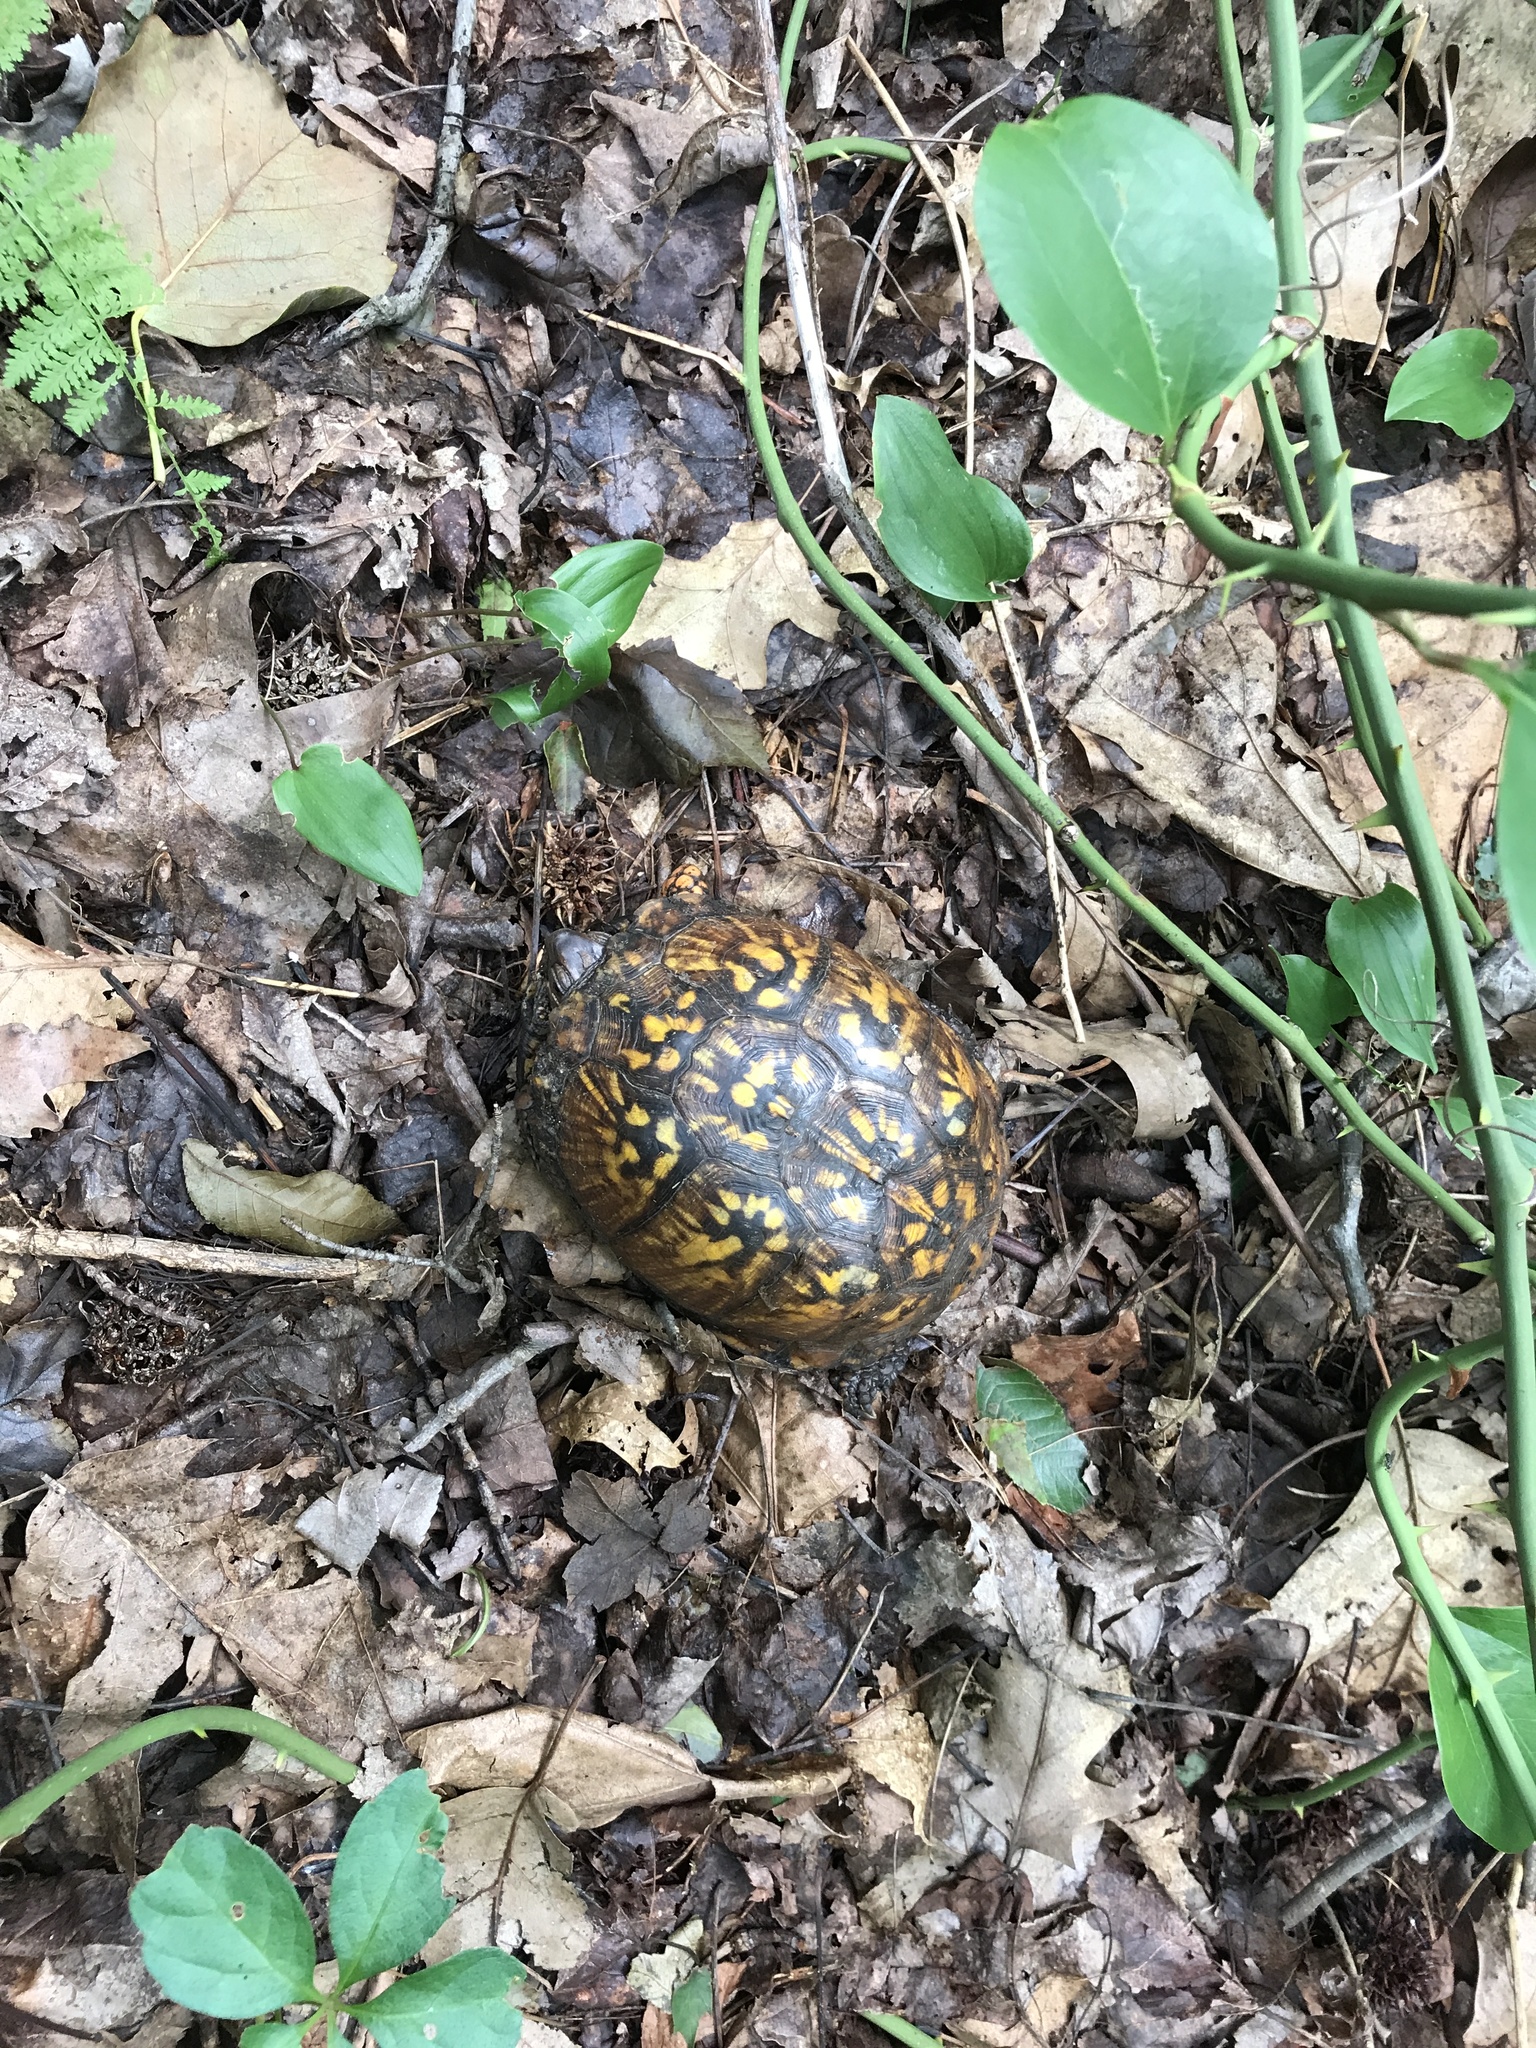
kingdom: Animalia
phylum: Chordata
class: Testudines
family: Emydidae
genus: Terrapene
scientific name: Terrapene carolina
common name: Common box turtle
